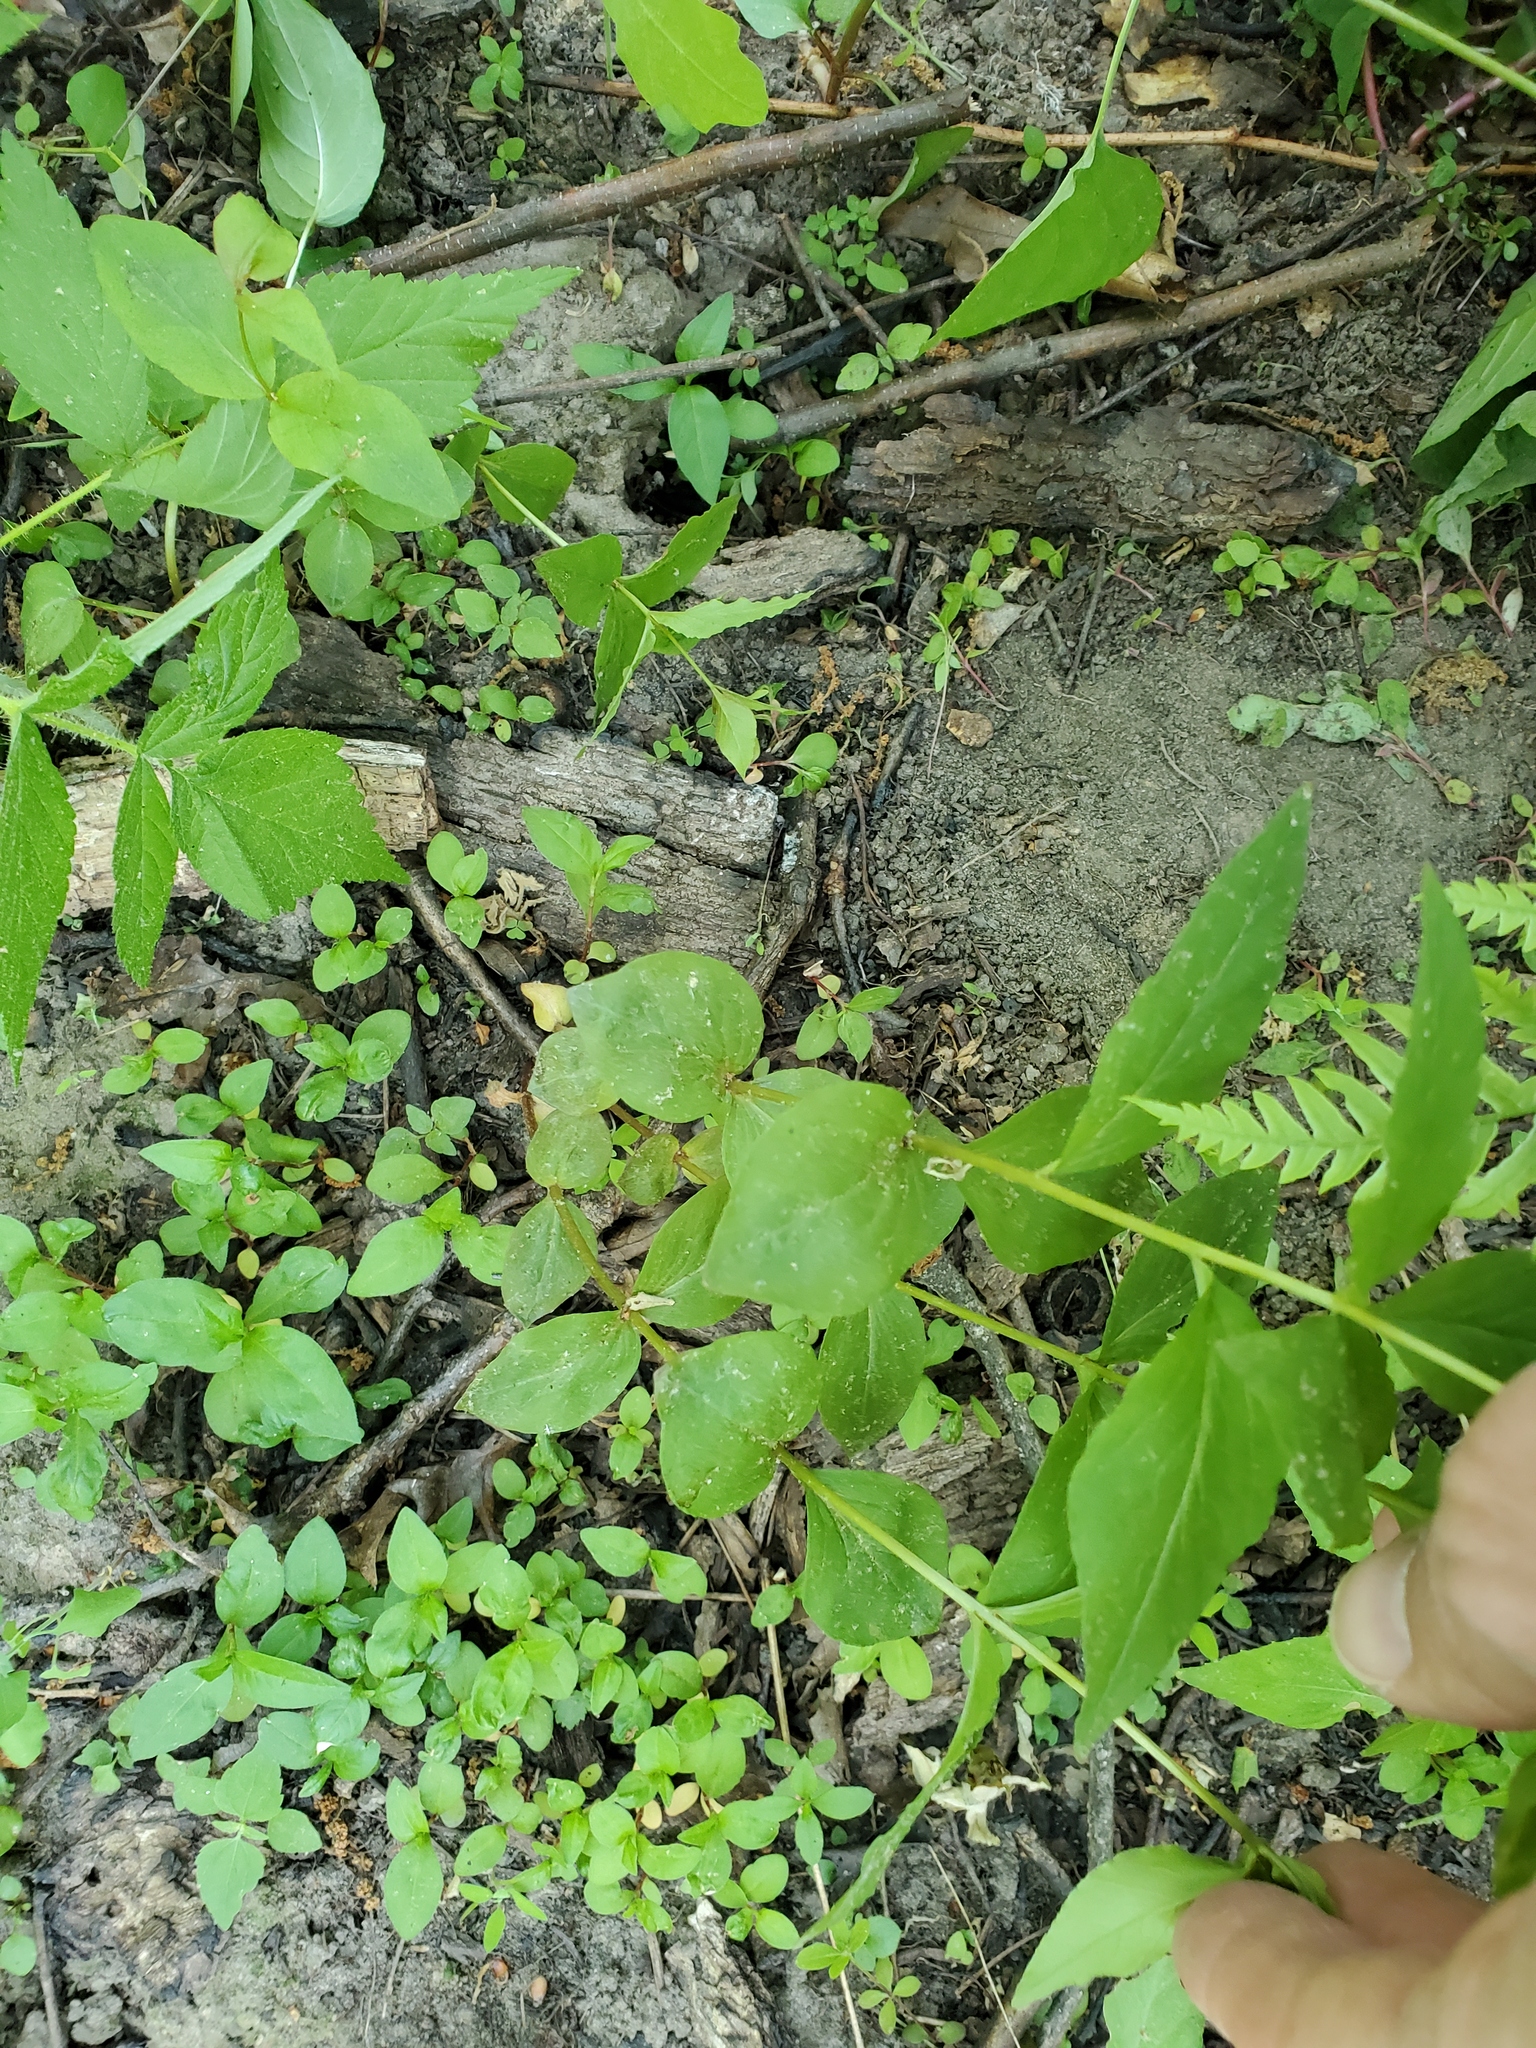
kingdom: Plantae
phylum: Tracheophyta
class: Magnoliopsida
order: Ericales
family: Primulaceae
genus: Lysimachia
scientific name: Lysimachia quadrifolia
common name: Whorled loosestrife
